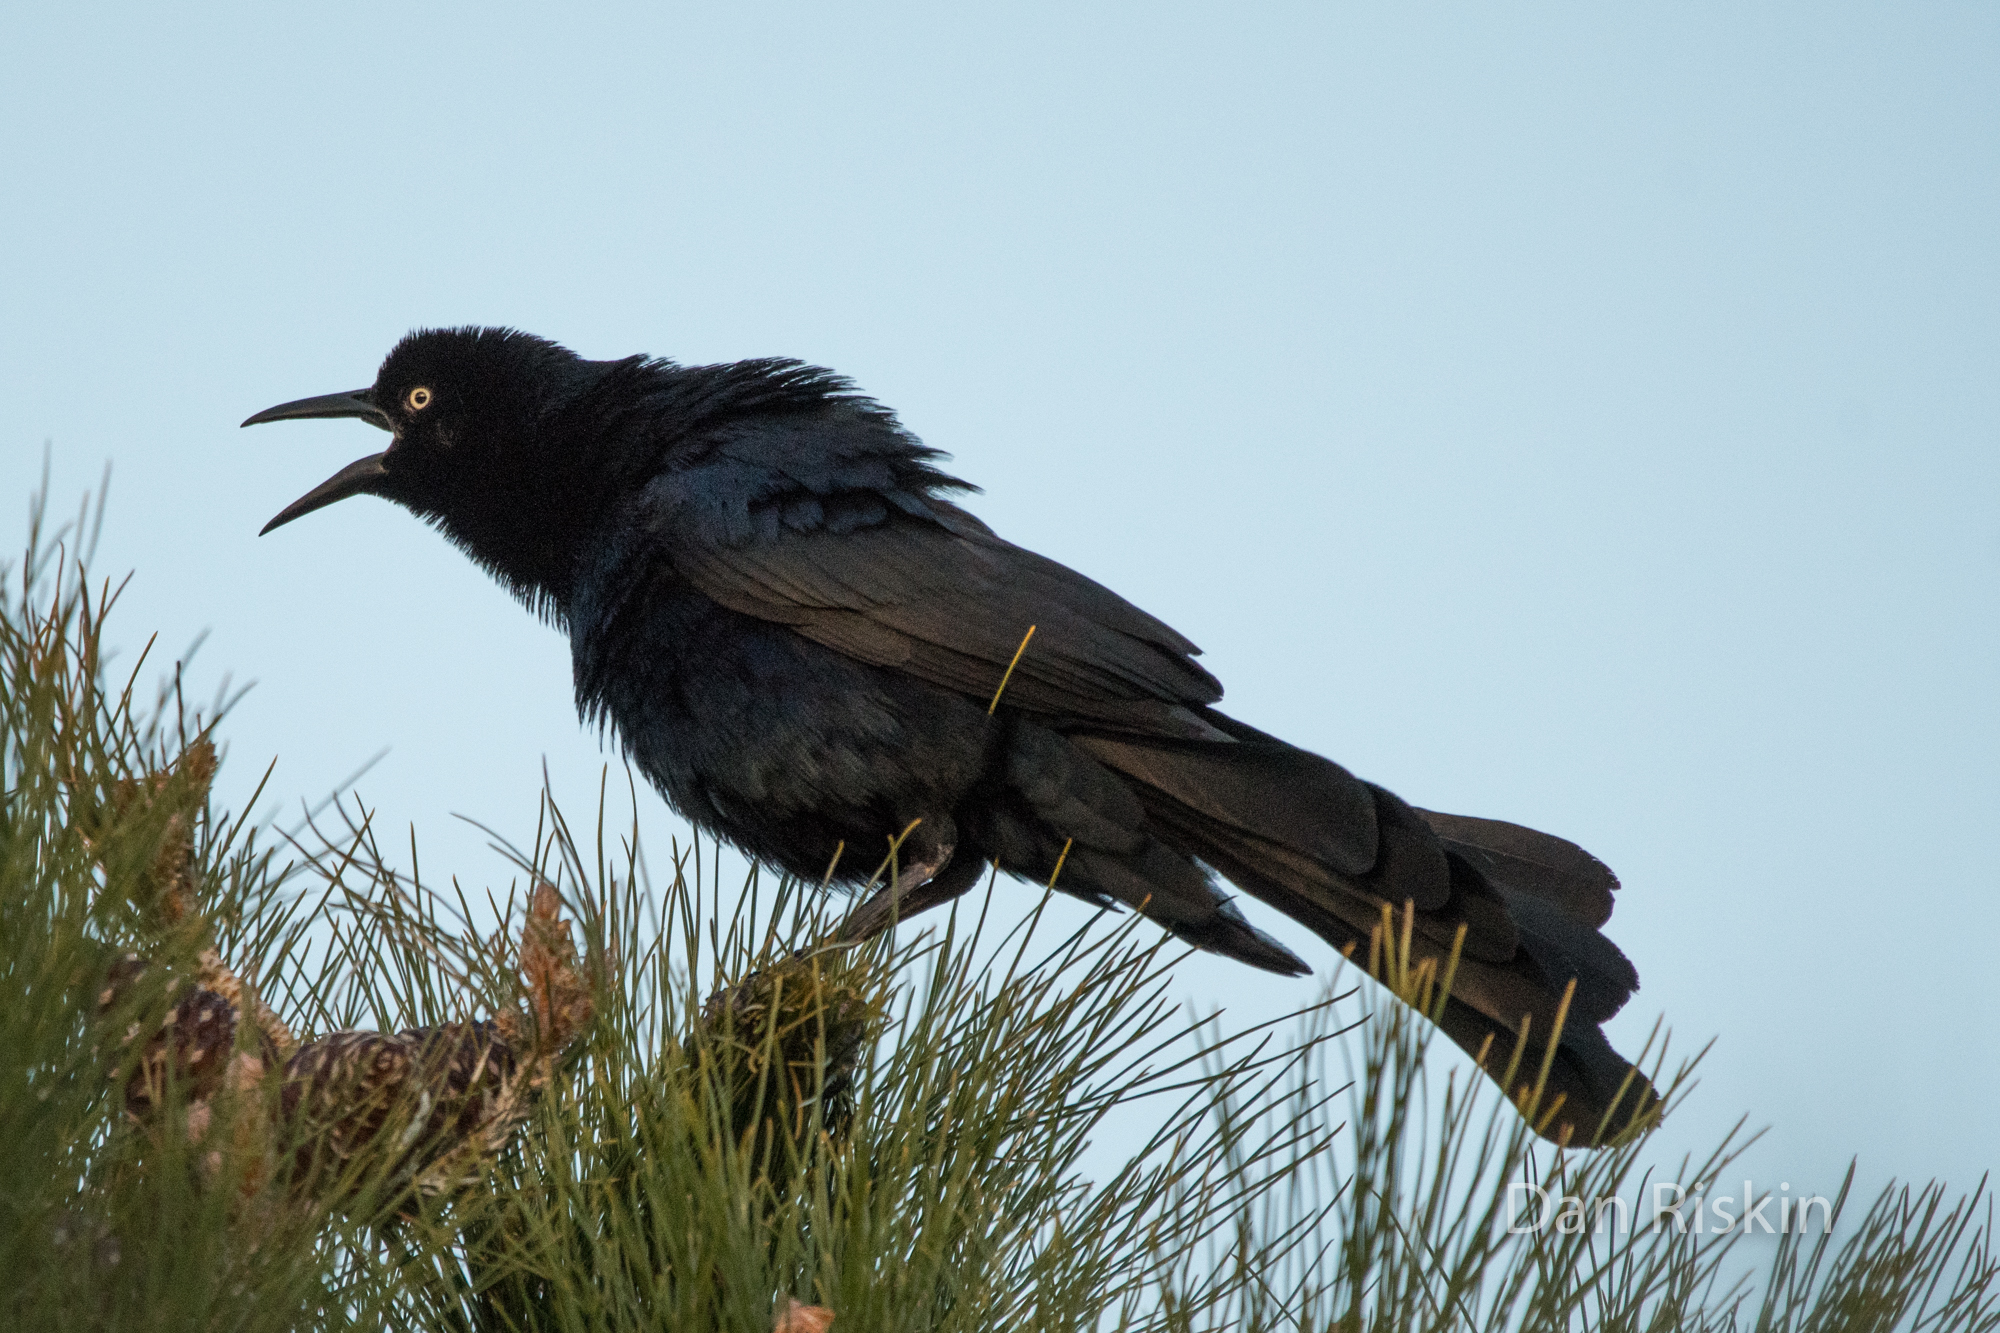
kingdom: Animalia
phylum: Chordata
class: Aves
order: Passeriformes
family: Icteridae
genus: Quiscalus
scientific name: Quiscalus mexicanus
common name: Great-tailed grackle
